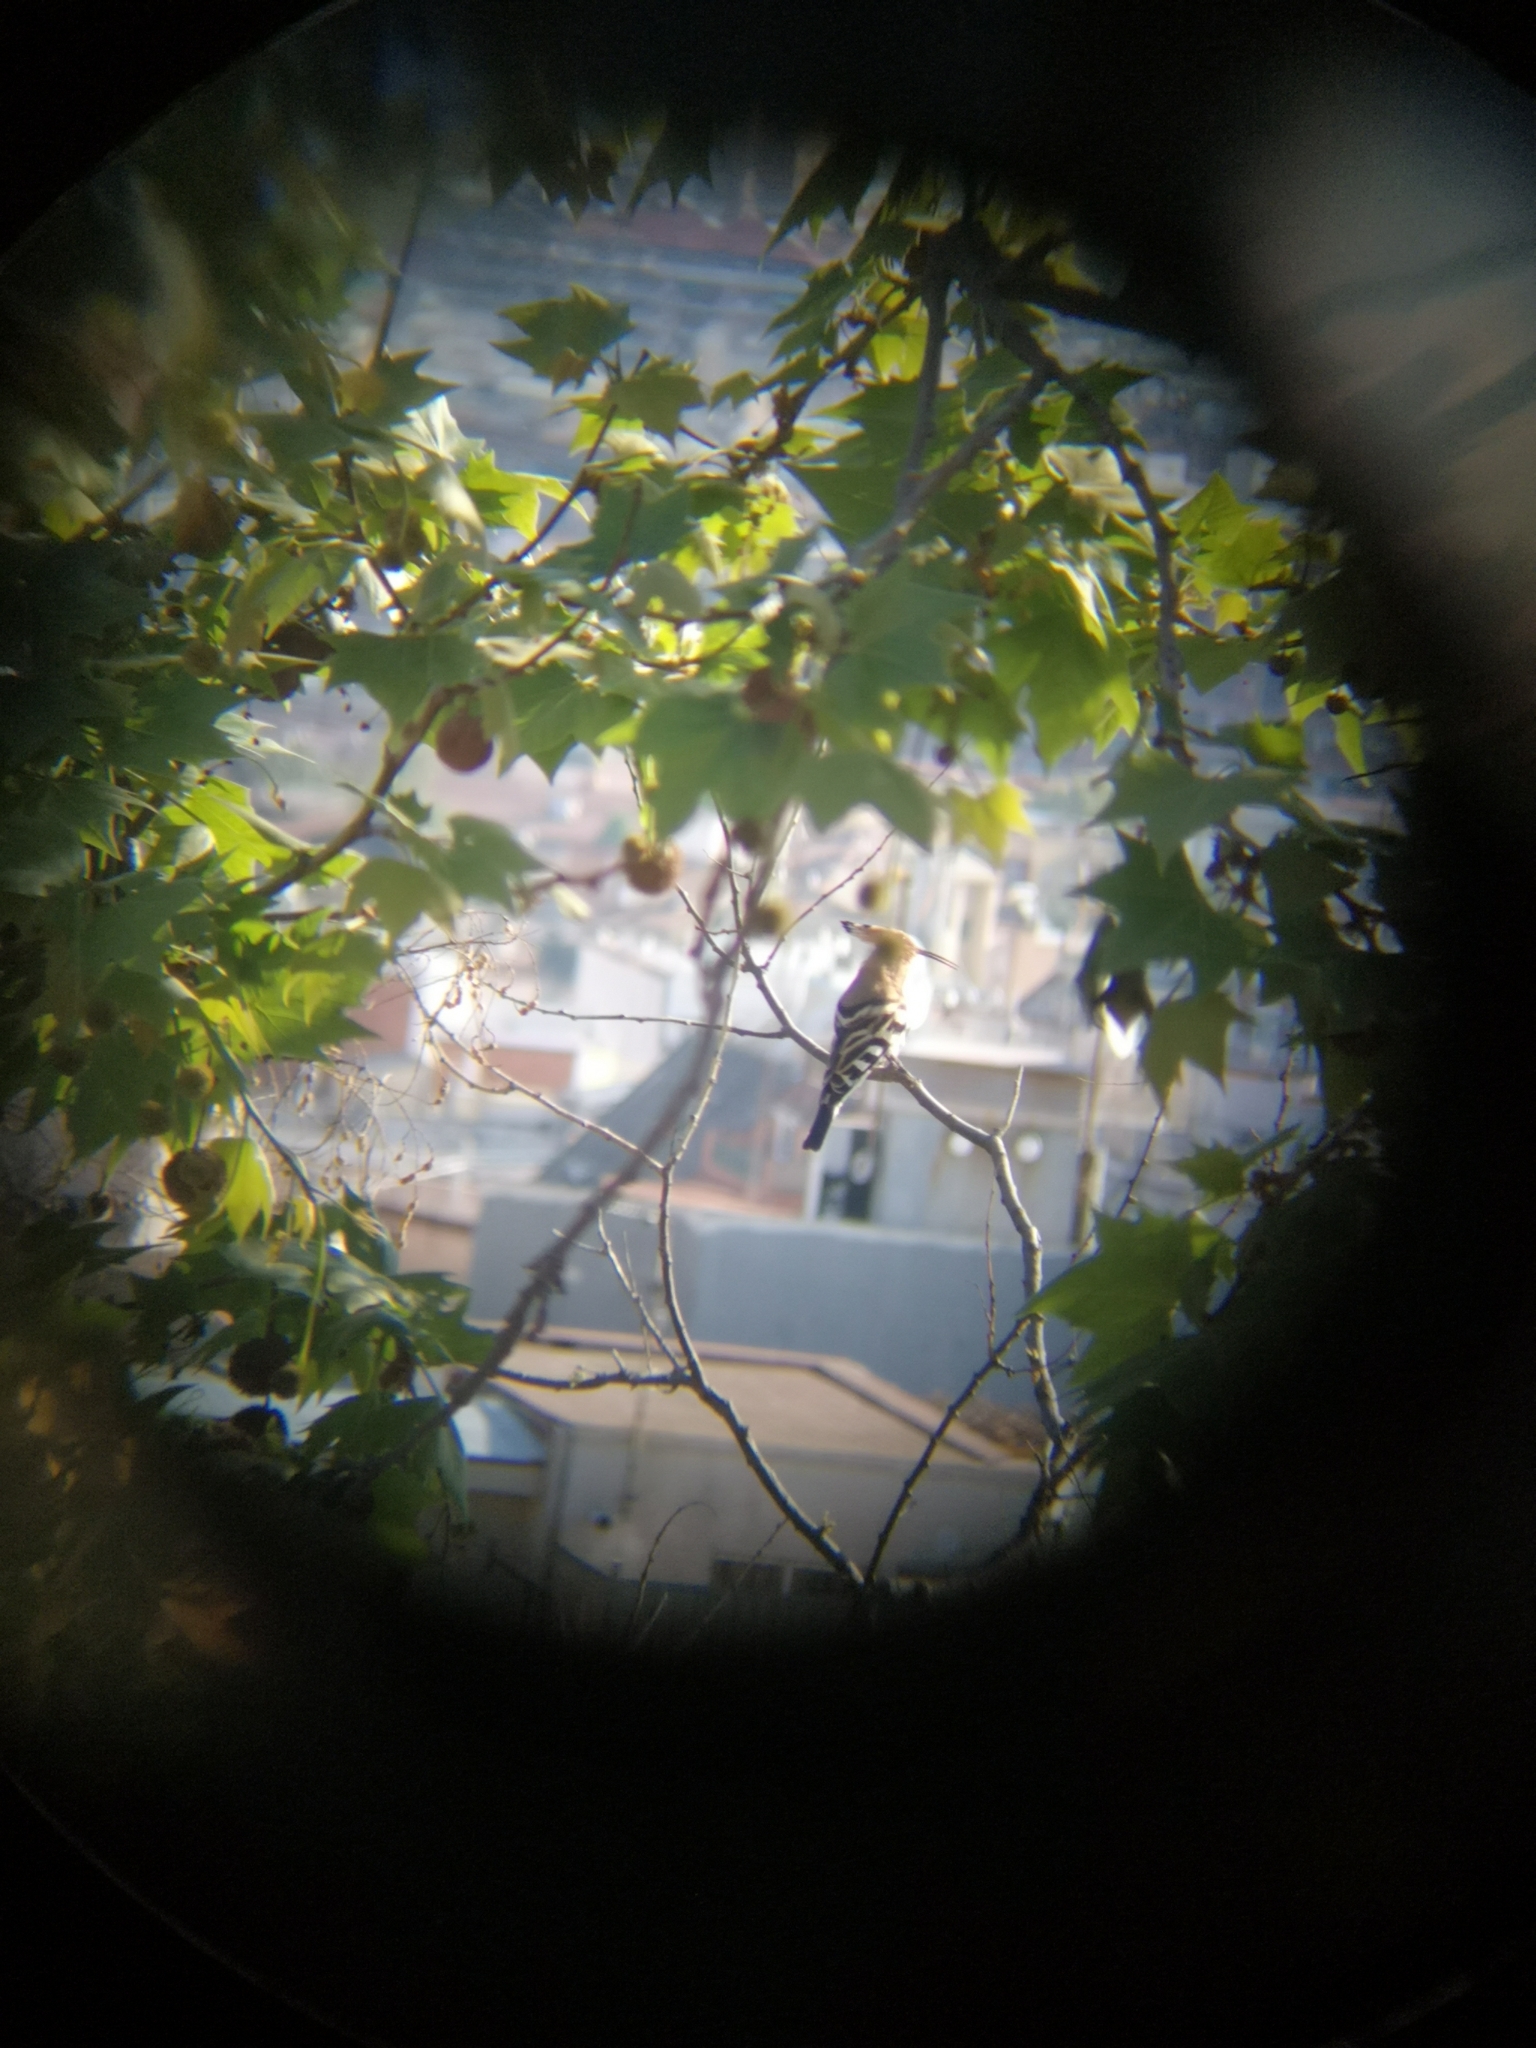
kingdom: Animalia
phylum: Chordata
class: Aves
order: Bucerotiformes
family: Upupidae
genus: Upupa
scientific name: Upupa epops
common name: Eurasian hoopoe
